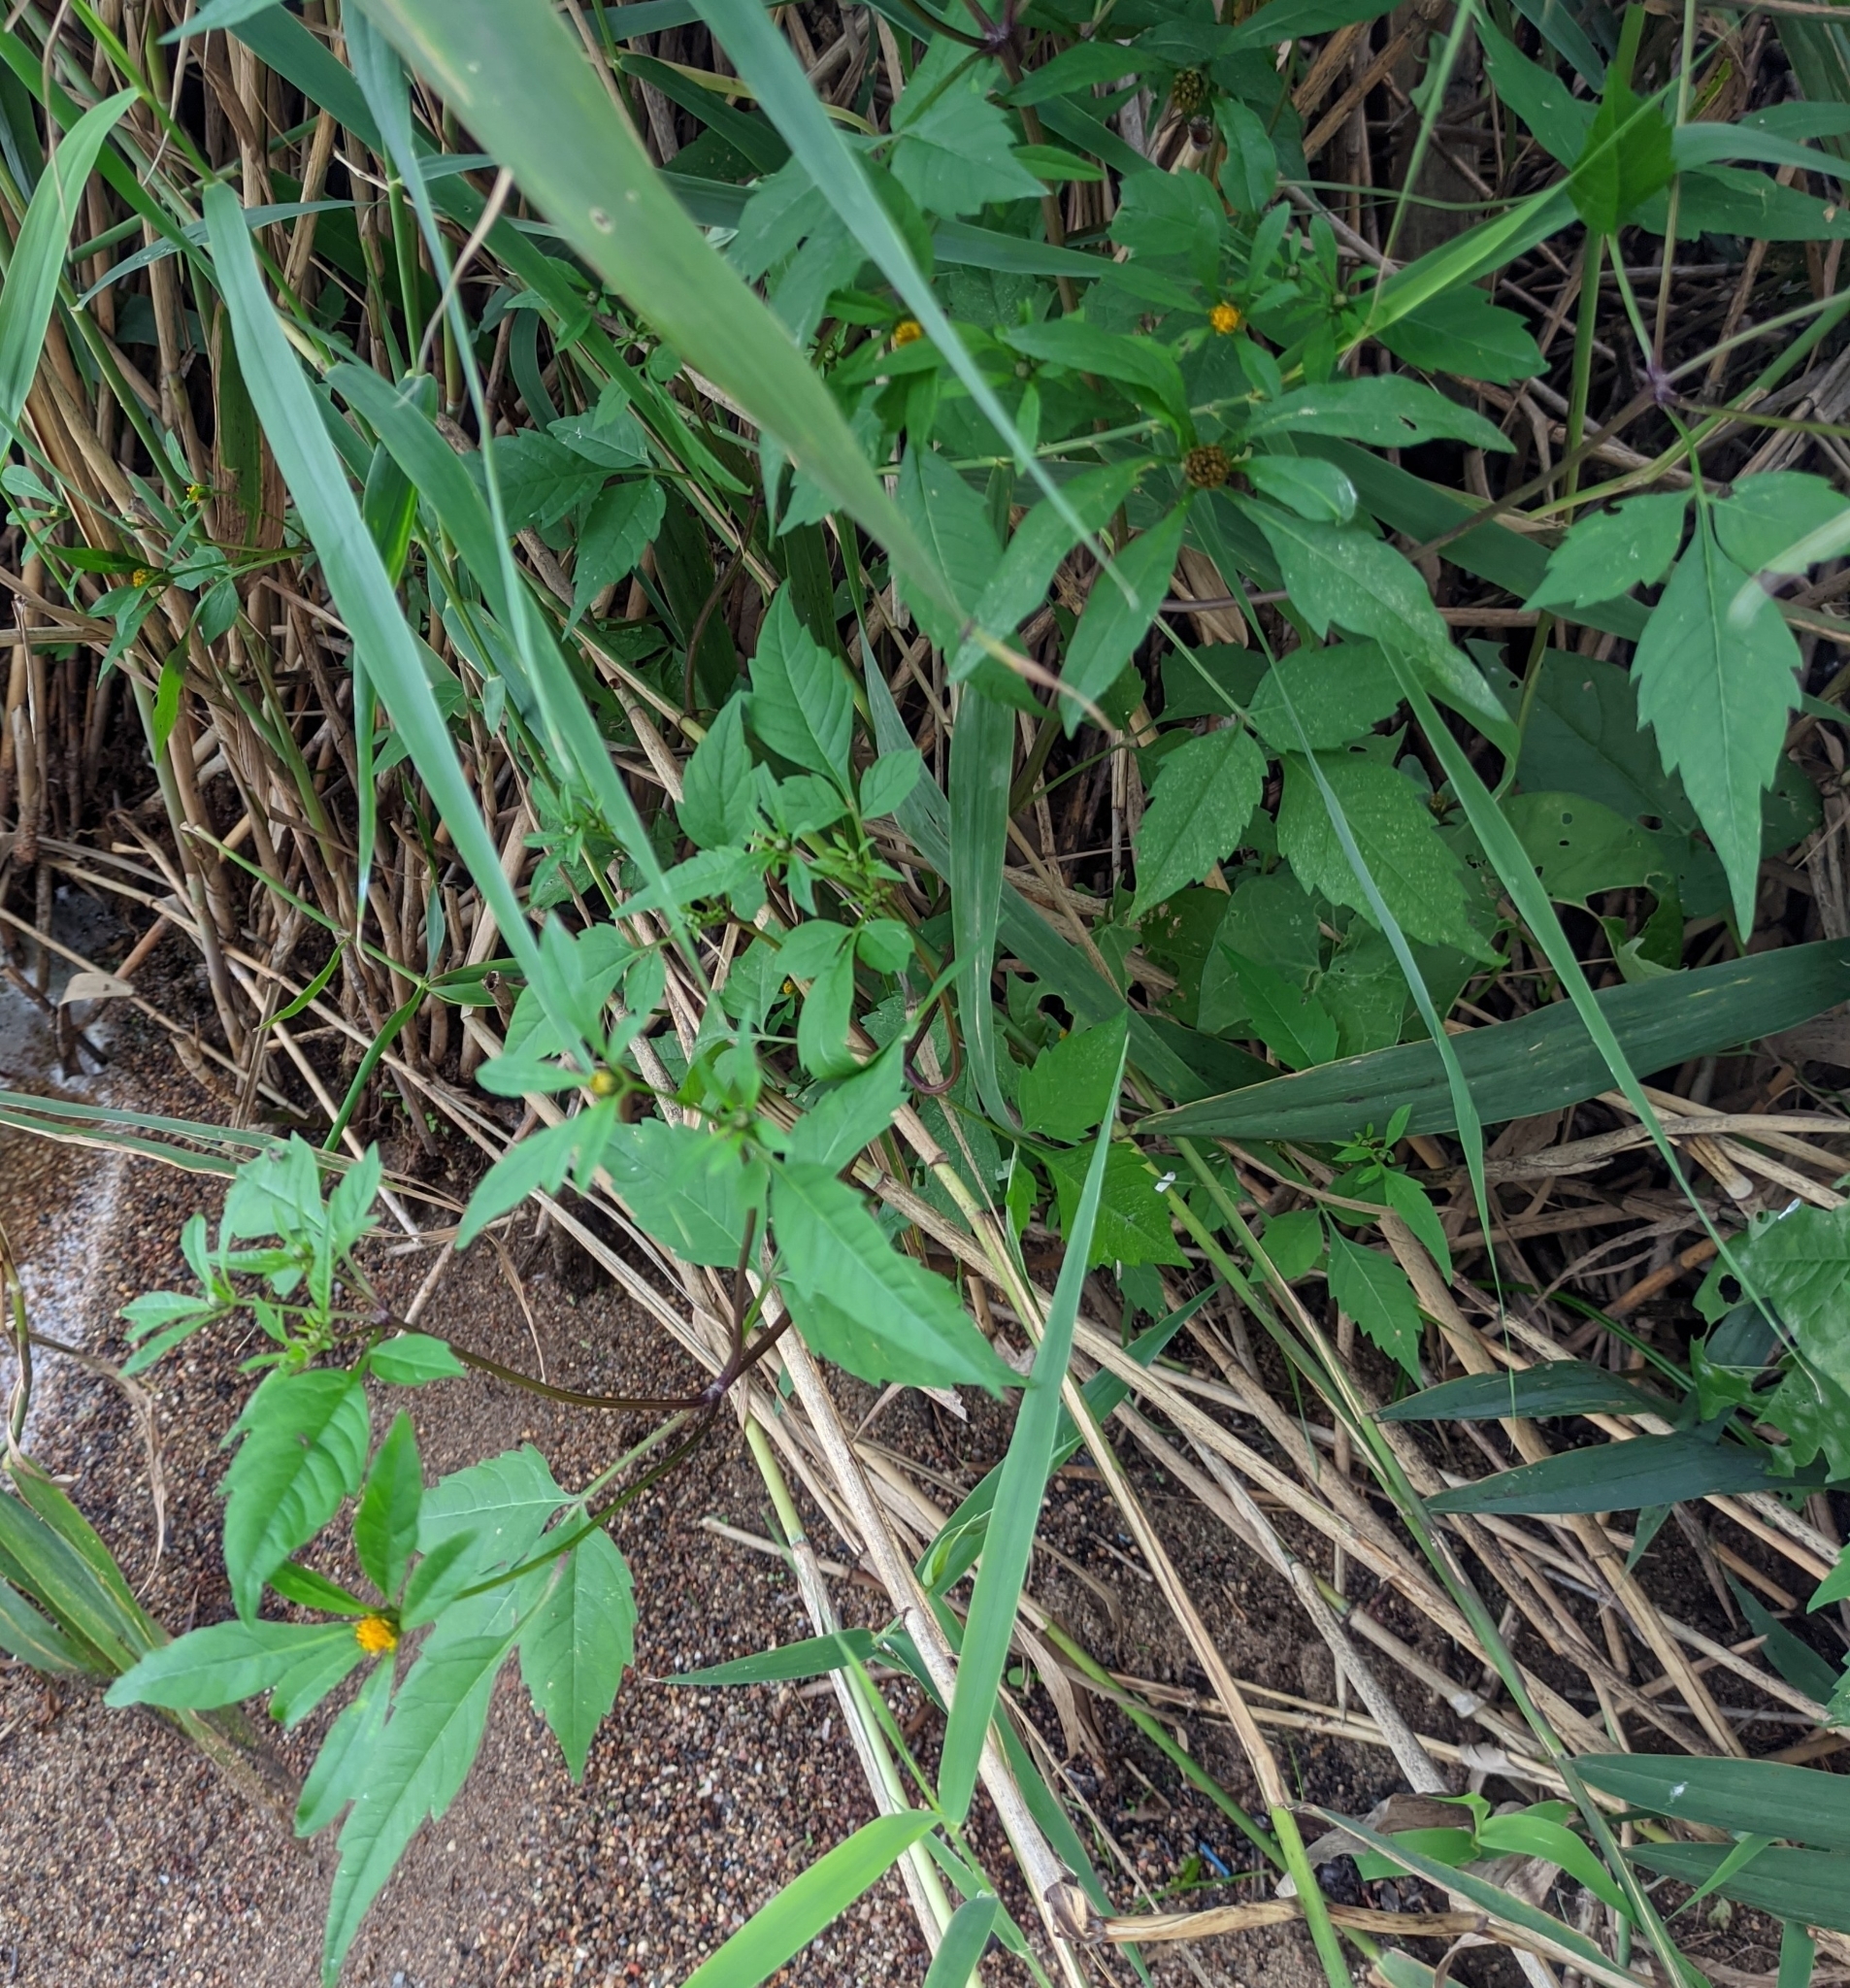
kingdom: Plantae
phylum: Tracheophyta
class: Magnoliopsida
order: Asterales
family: Asteraceae
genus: Bidens
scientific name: Bidens frondosa
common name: Beggarticks
